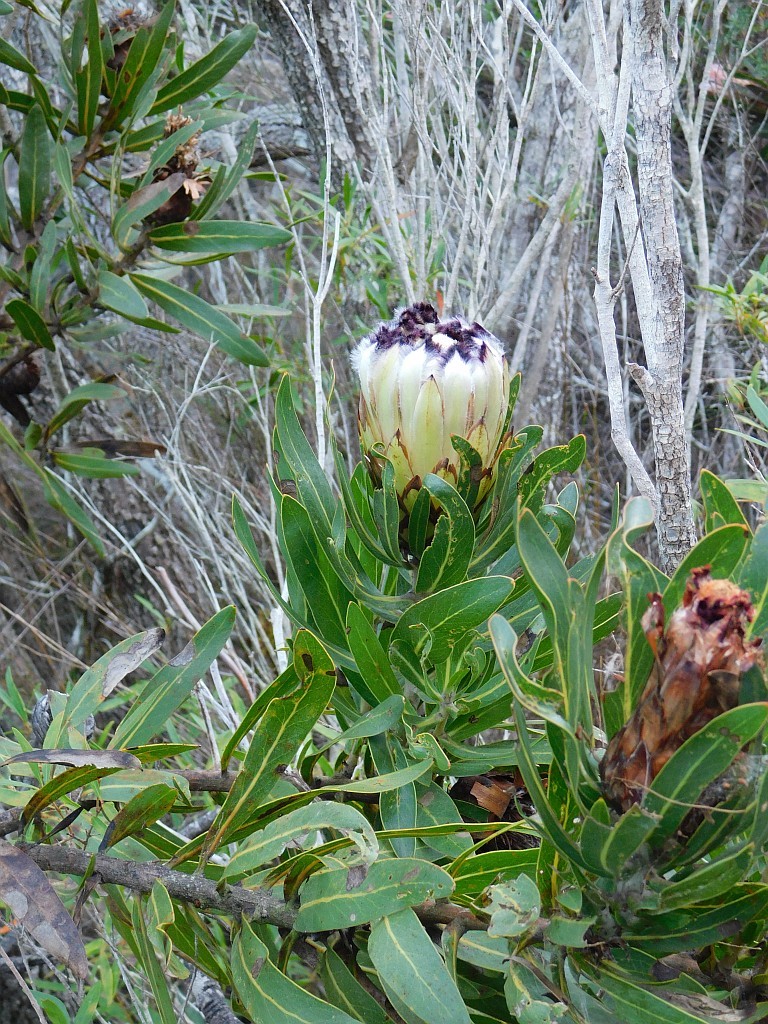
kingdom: Plantae
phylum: Tracheophyta
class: Magnoliopsida
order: Proteales
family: Proteaceae
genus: Protea
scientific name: Protea neriifolia
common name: Blue sugarbush
